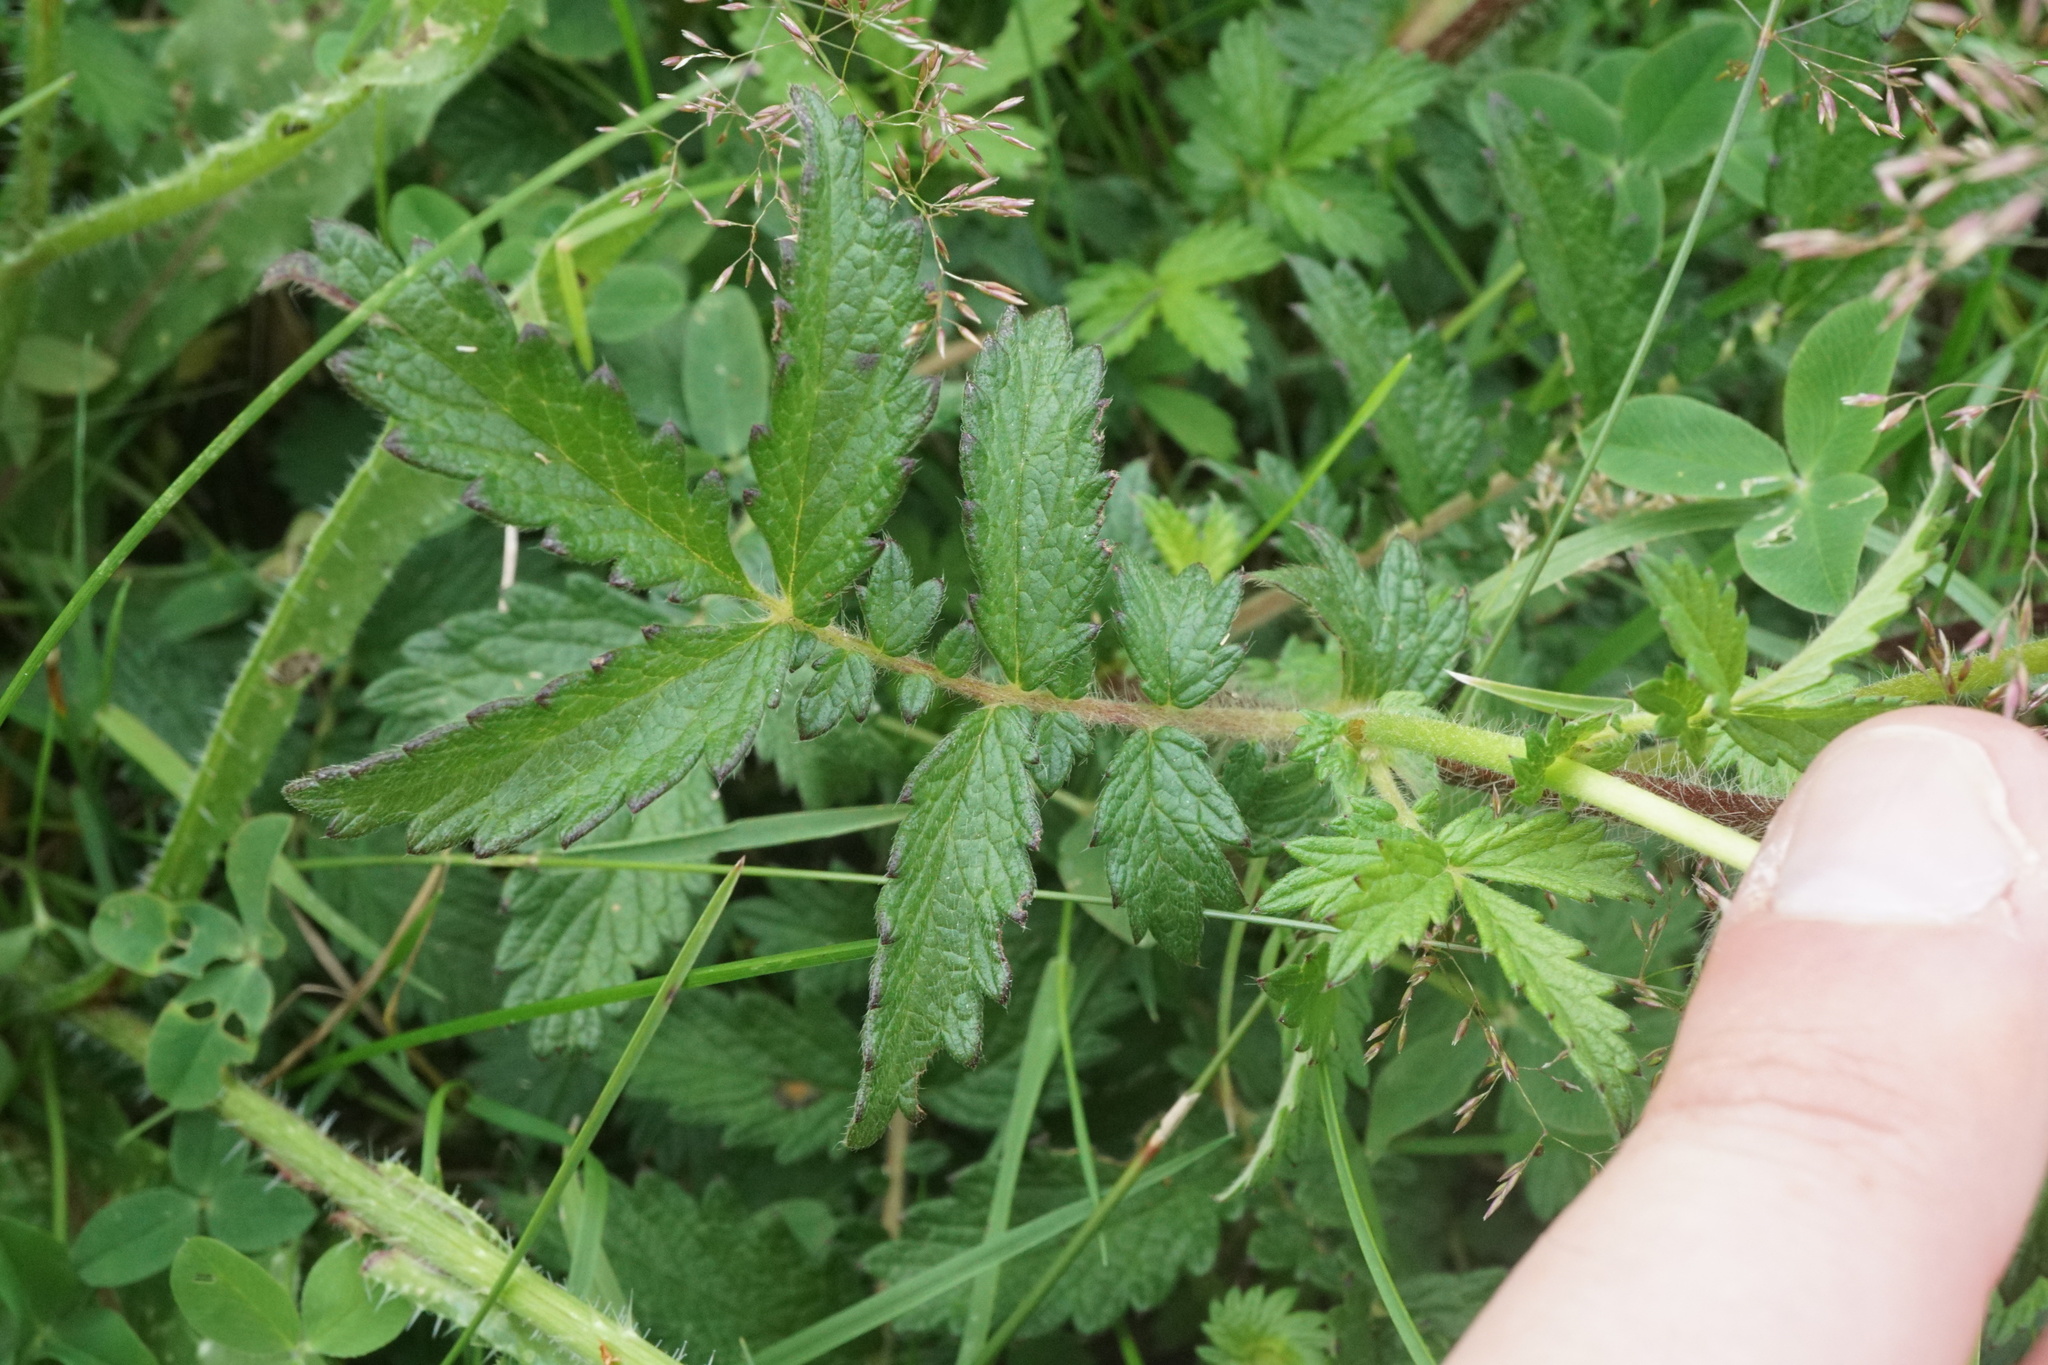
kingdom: Plantae
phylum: Tracheophyta
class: Magnoliopsida
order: Rosales
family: Rosaceae
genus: Agrimonia
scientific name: Agrimonia eupatoria
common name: Agrimony
